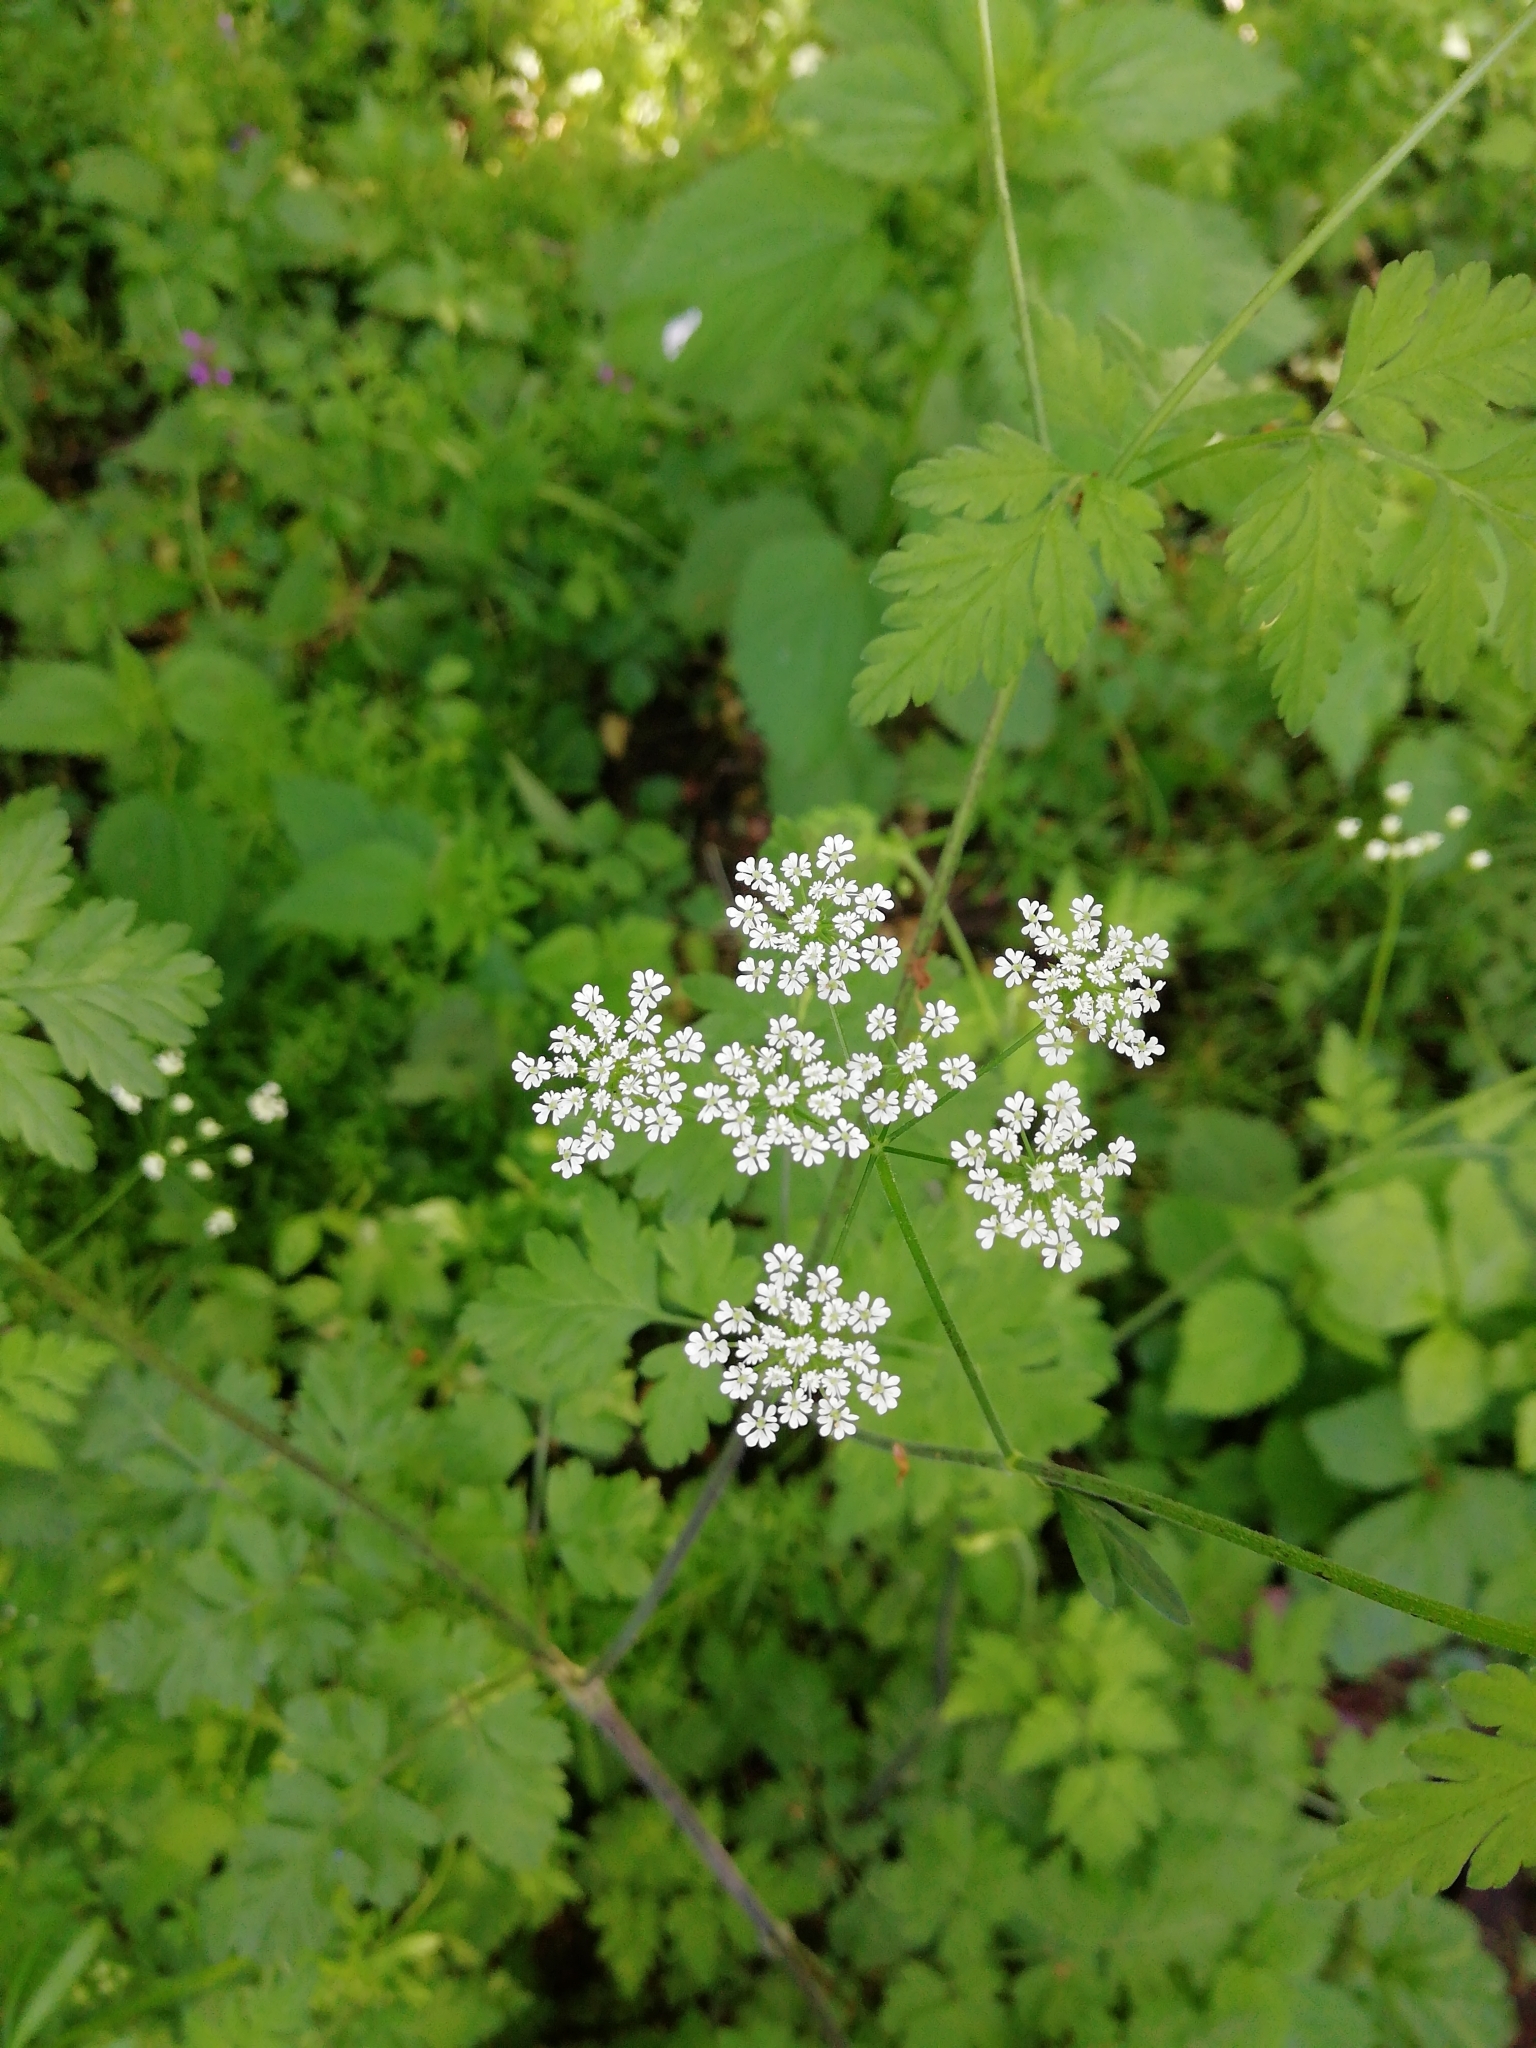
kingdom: Plantae
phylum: Tracheophyta
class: Magnoliopsida
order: Apiales
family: Apiaceae
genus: Chaerophyllum
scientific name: Chaerophyllum temulum
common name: Rough chervil
